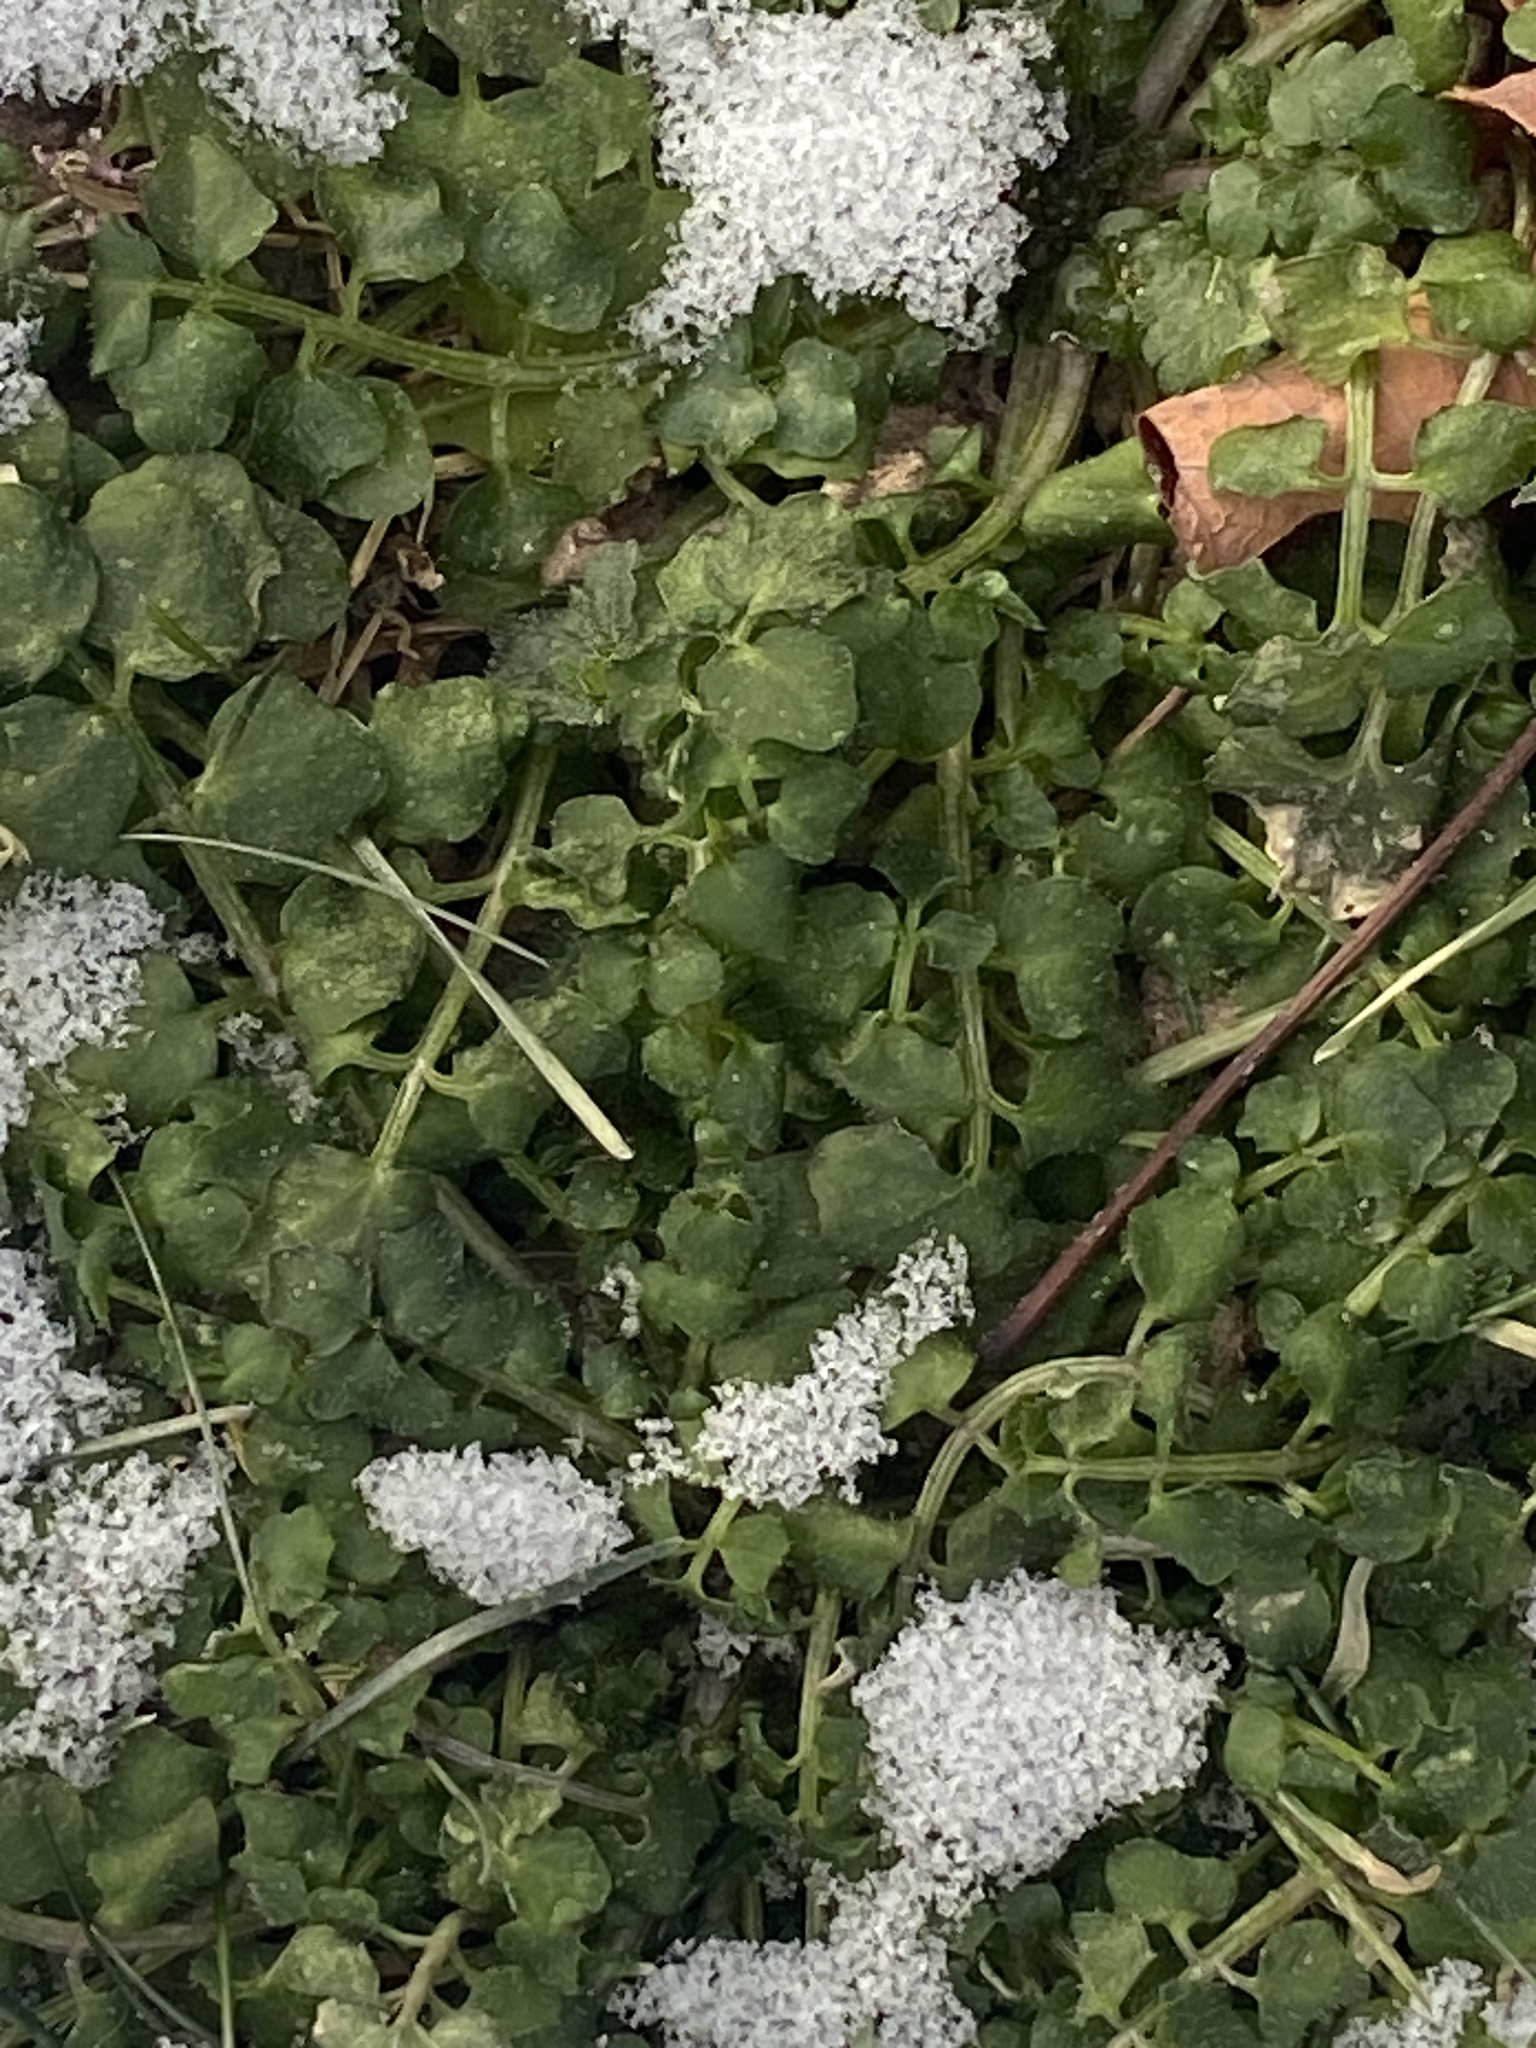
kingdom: Plantae
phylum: Tracheophyta
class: Magnoliopsida
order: Brassicales
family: Brassicaceae
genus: Cardamine
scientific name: Cardamine hirsuta
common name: Hairy bittercress
